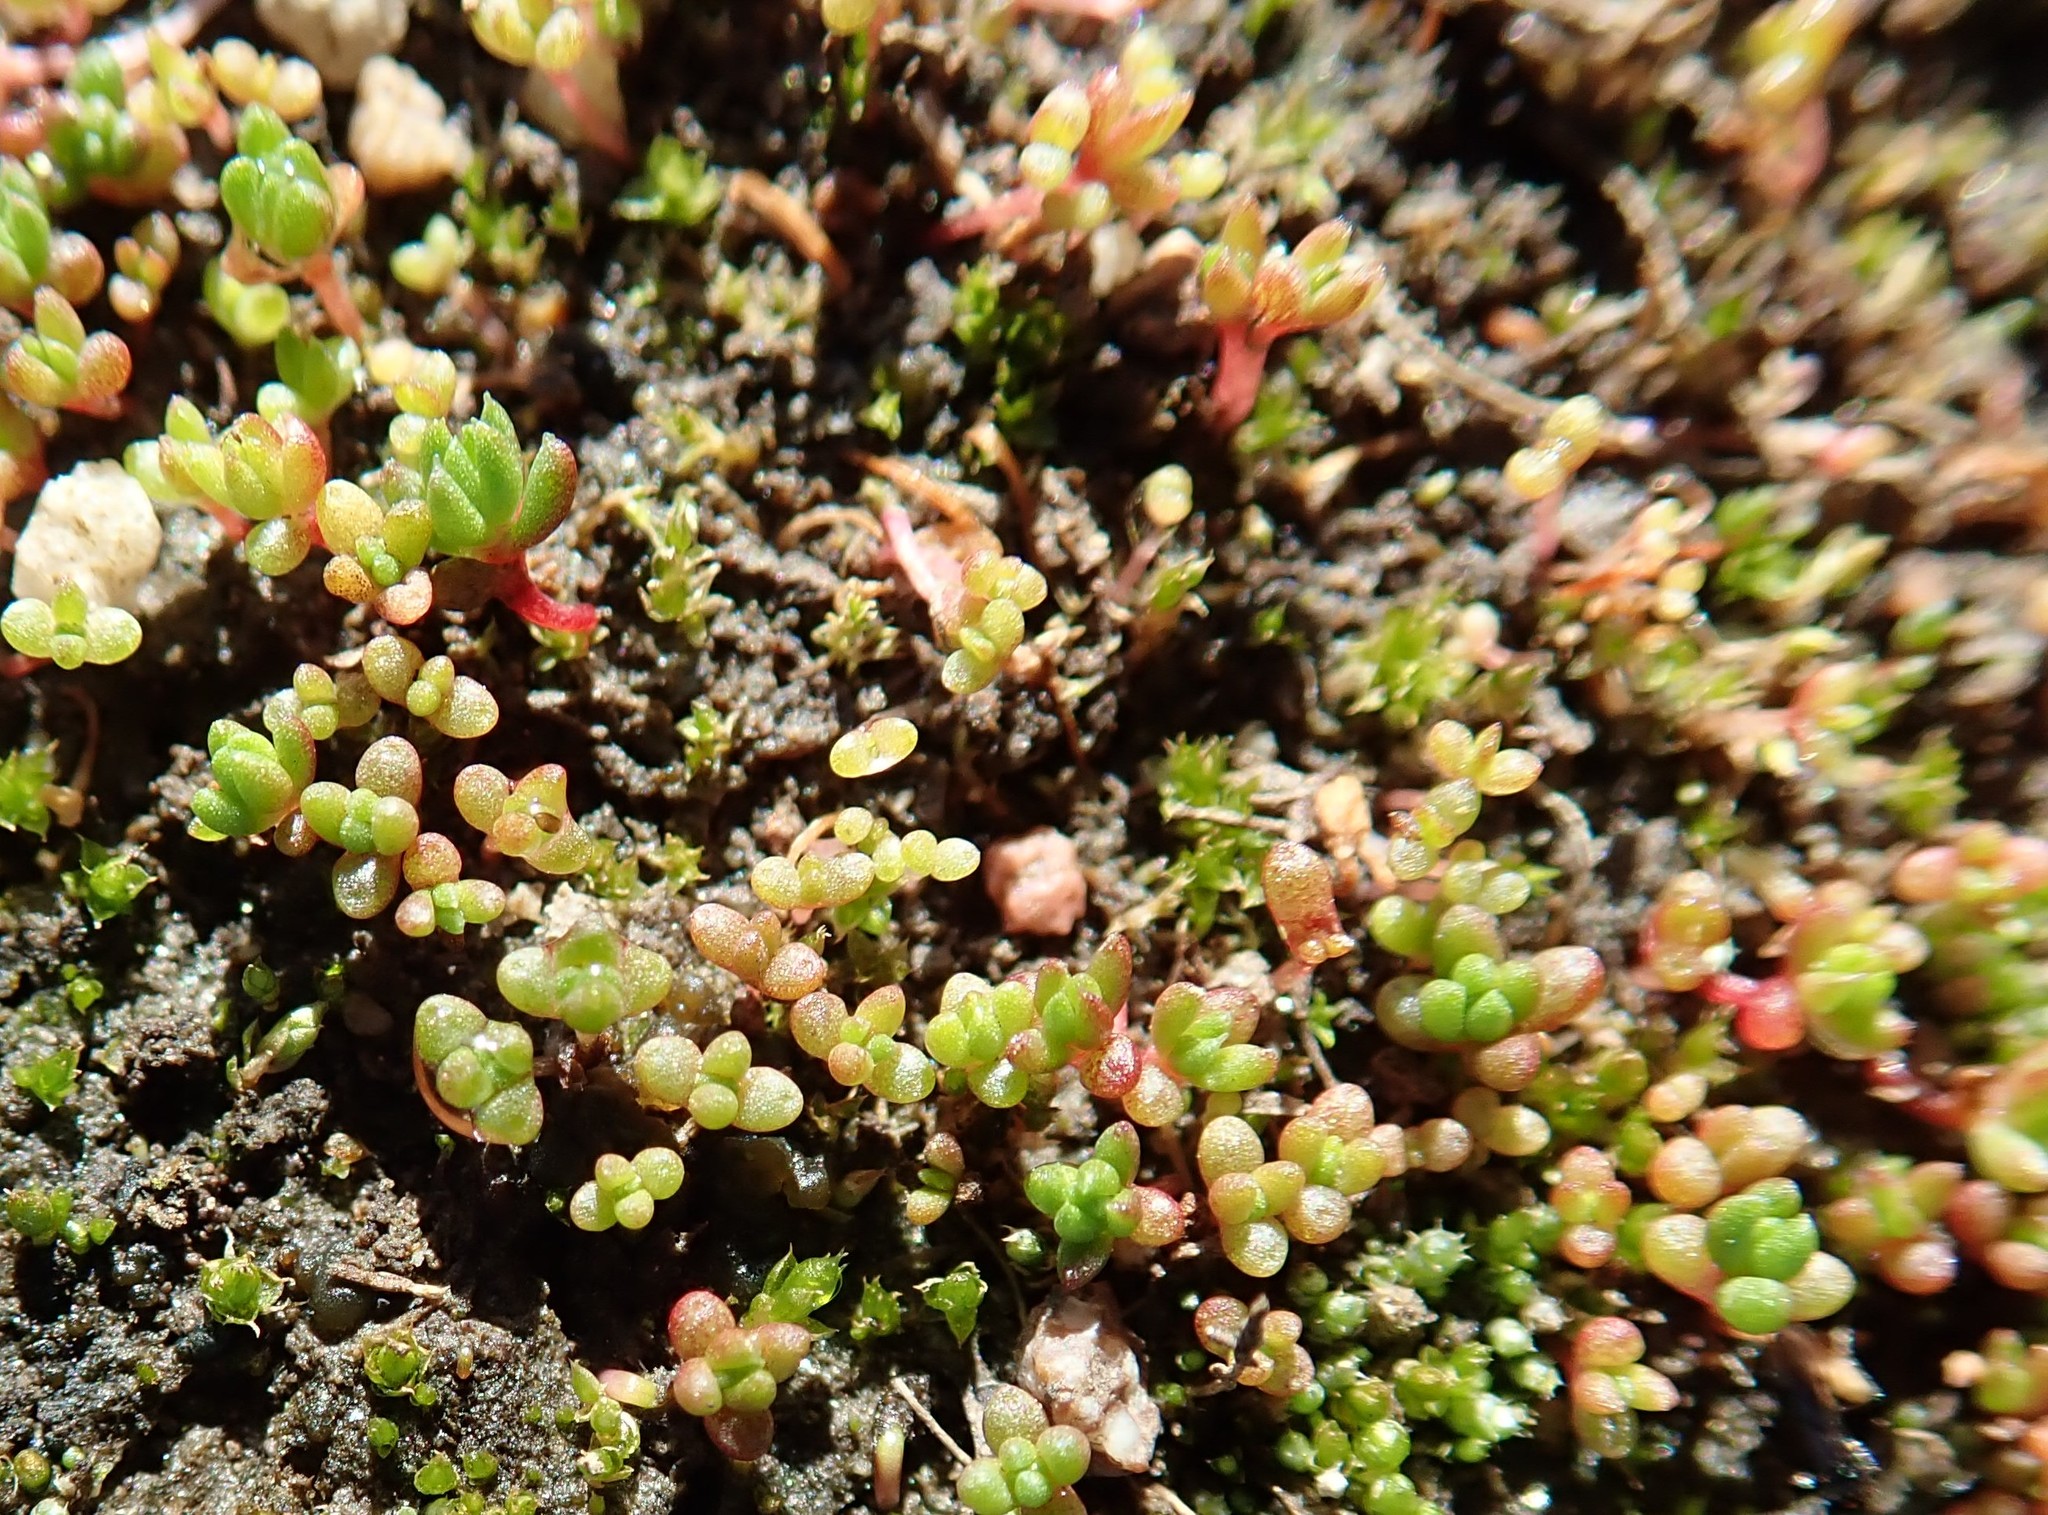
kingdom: Plantae
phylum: Tracheophyta
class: Magnoliopsida
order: Saxifragales
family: Crassulaceae
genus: Crassula
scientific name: Crassula connata
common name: Erect pygmyweed
